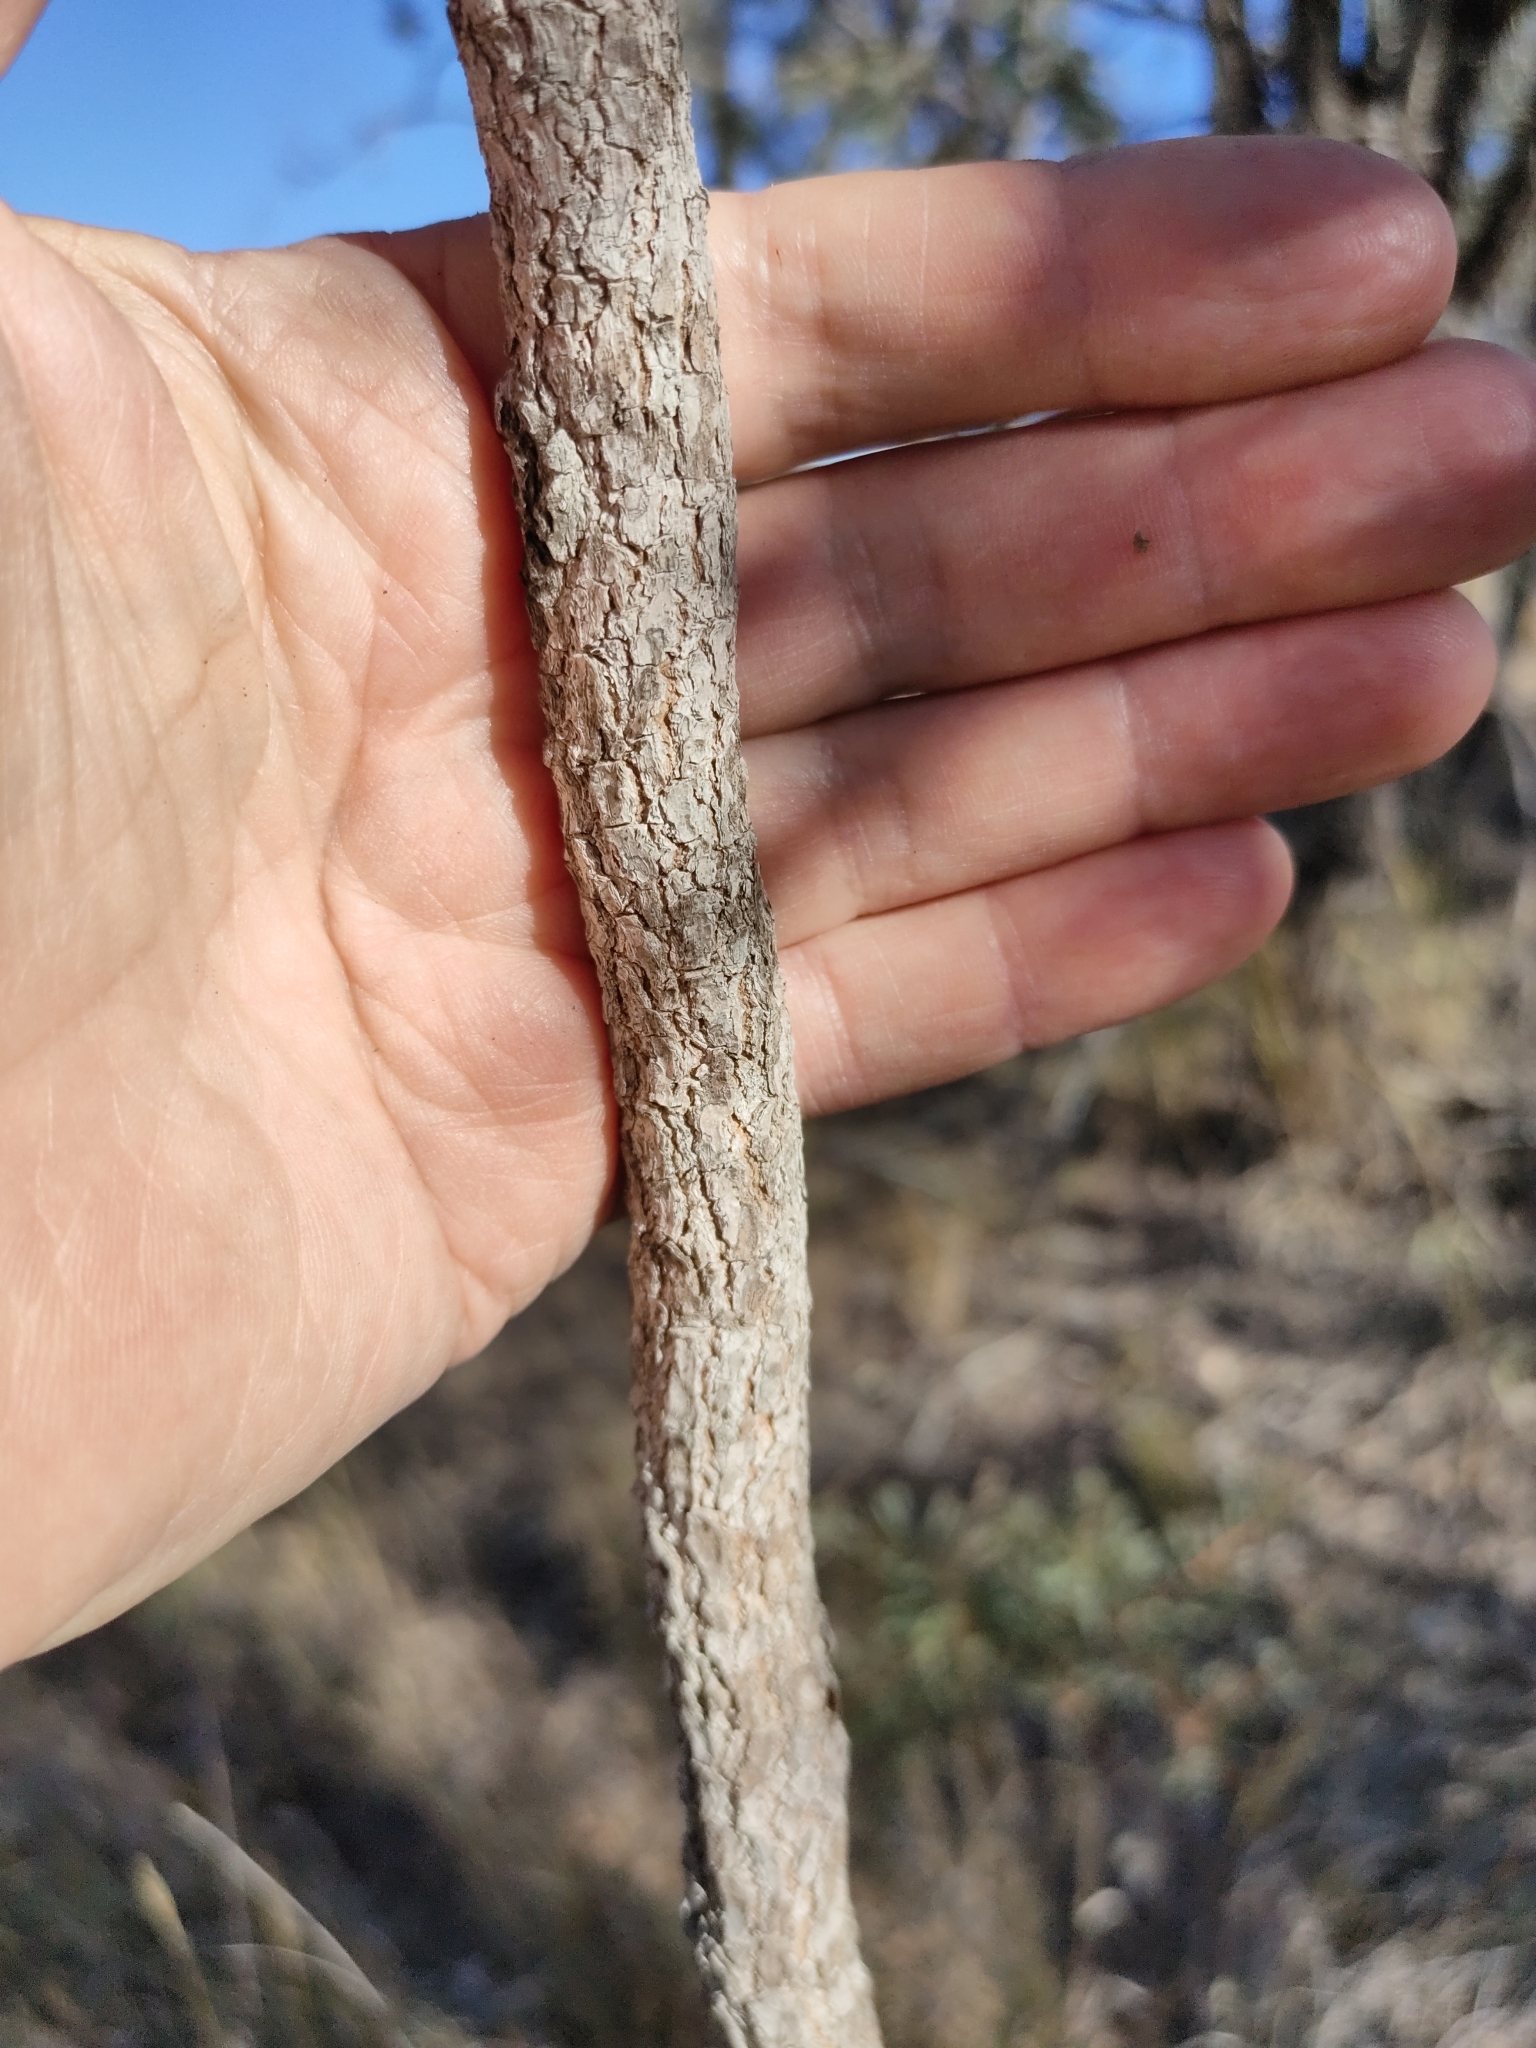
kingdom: Plantae
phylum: Tracheophyta
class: Magnoliopsida
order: Sapindales
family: Sapindaceae
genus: Atalaya
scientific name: Atalaya hemiglauca
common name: Western whitewood
